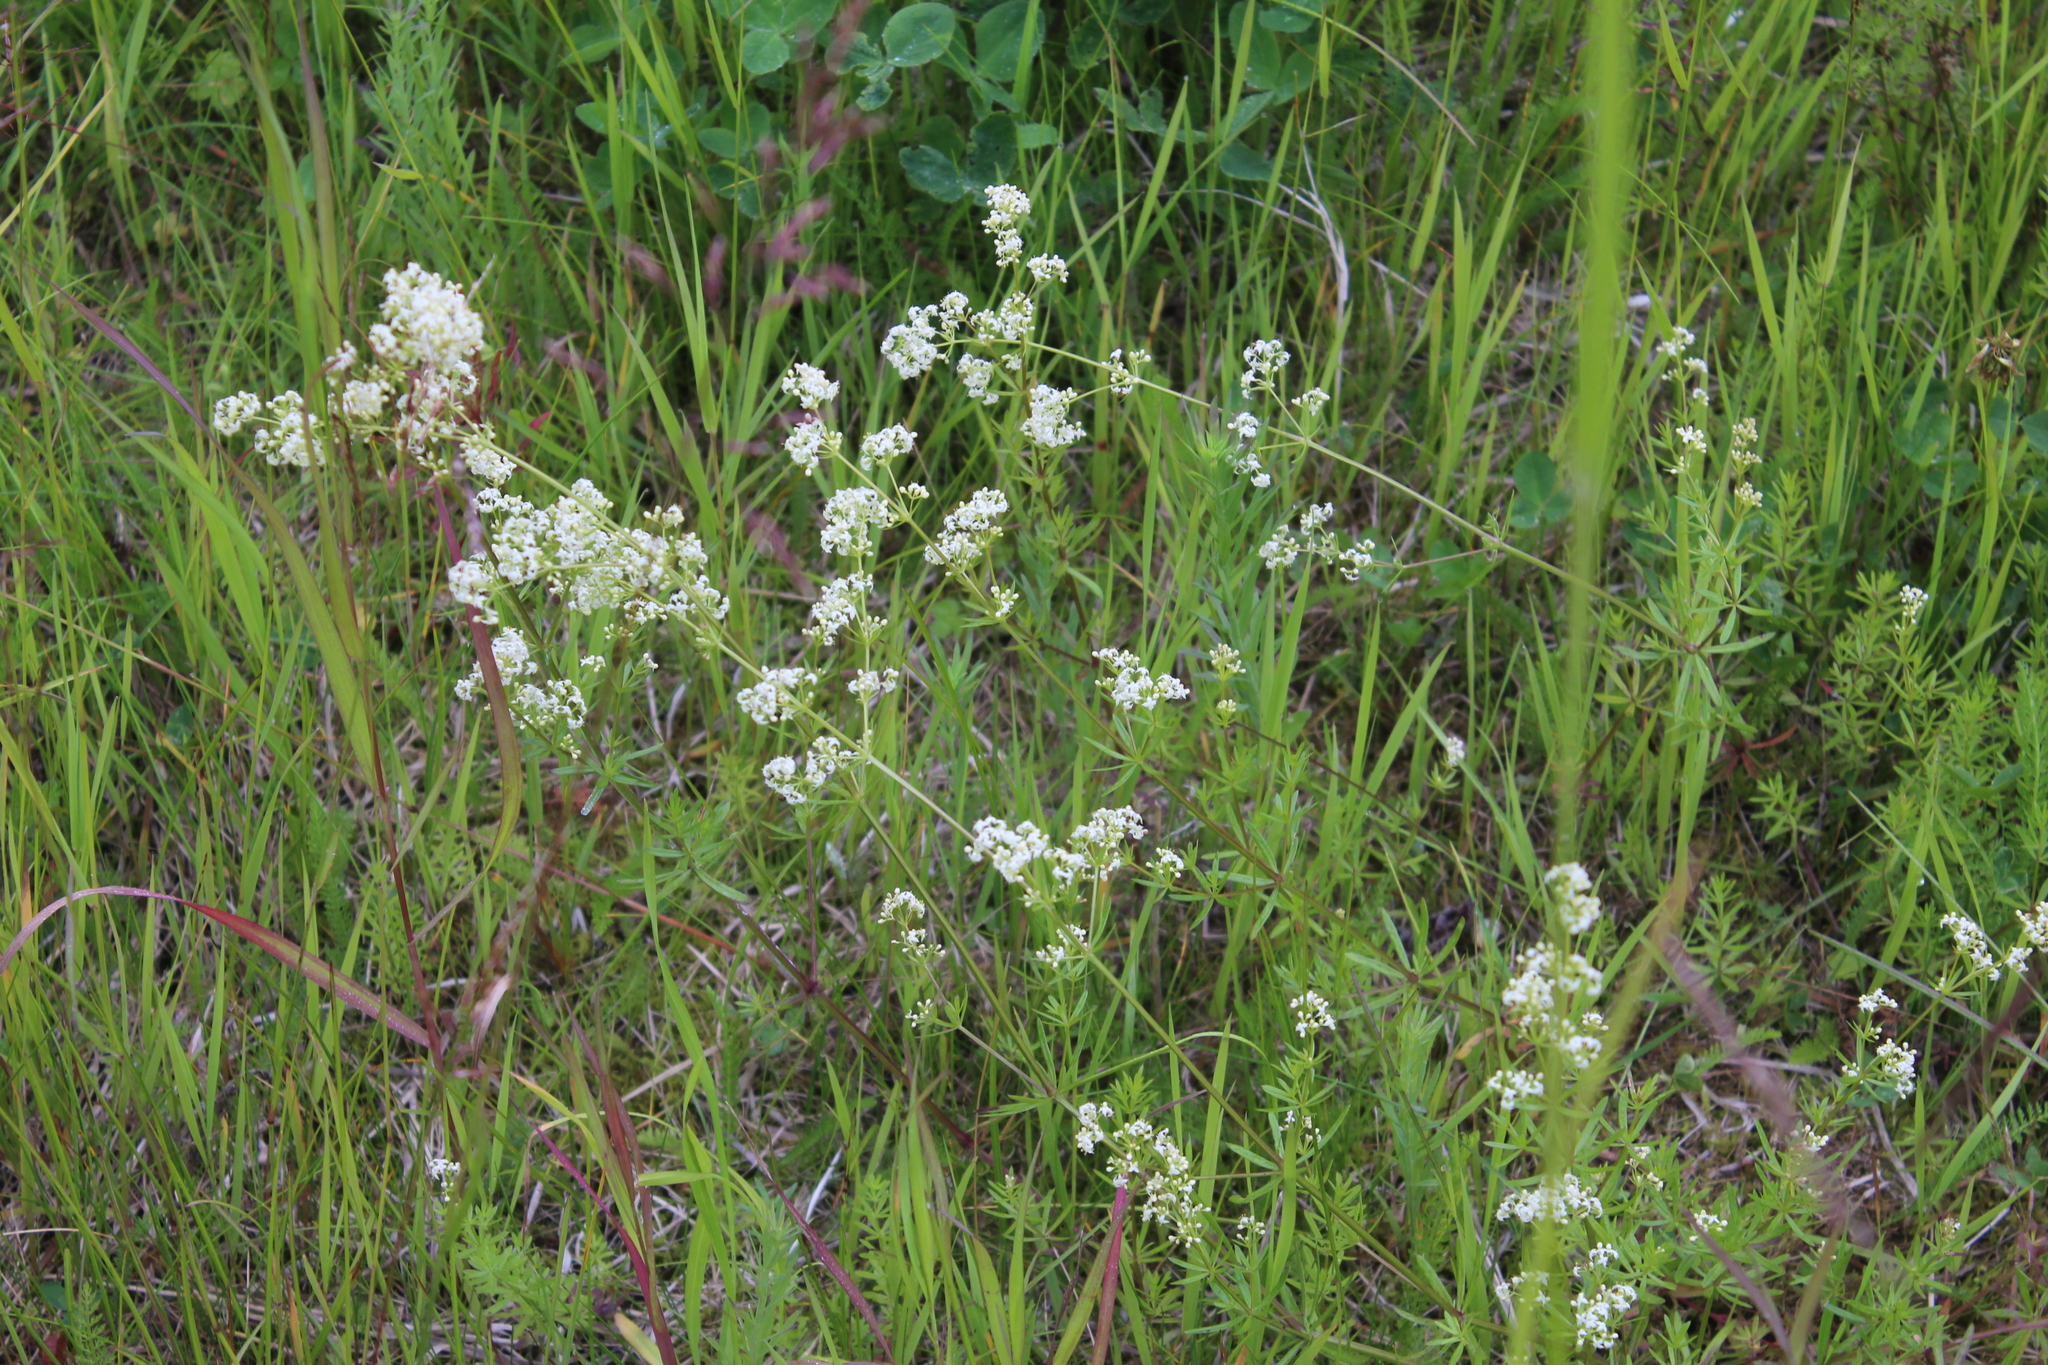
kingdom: Plantae
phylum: Tracheophyta
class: Magnoliopsida
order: Gentianales
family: Rubiaceae
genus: Galium
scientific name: Galium mollugo
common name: Hedge bedstraw
